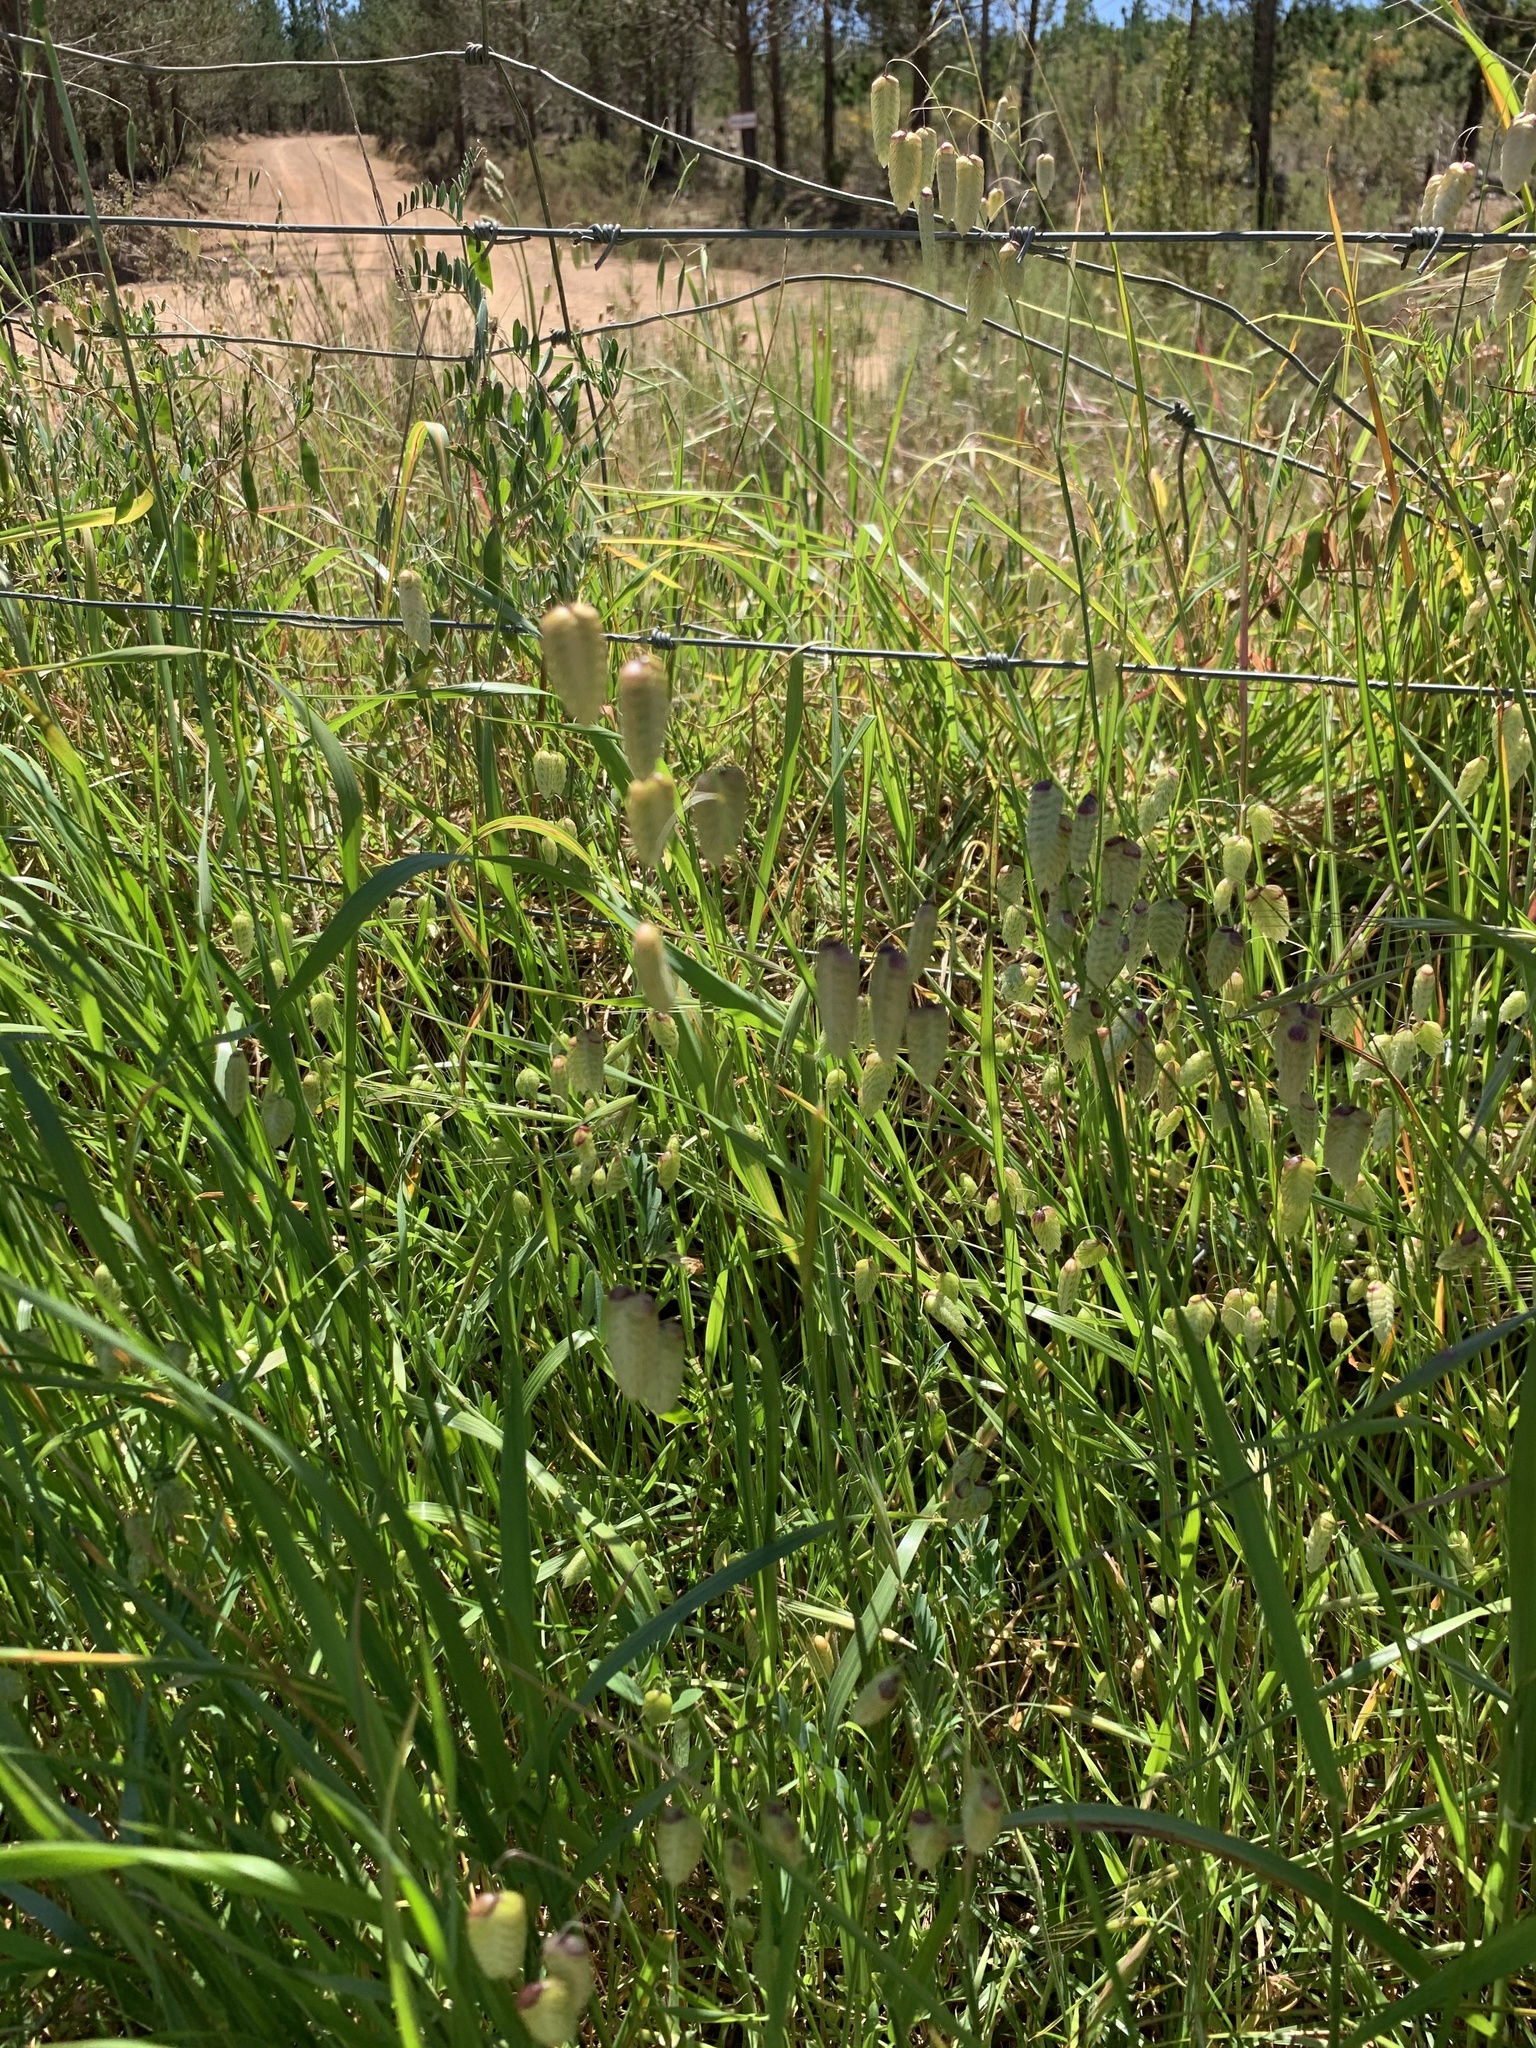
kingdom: Plantae
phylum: Tracheophyta
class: Liliopsida
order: Poales
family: Poaceae
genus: Briza
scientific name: Briza maxima
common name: Big quakinggrass
